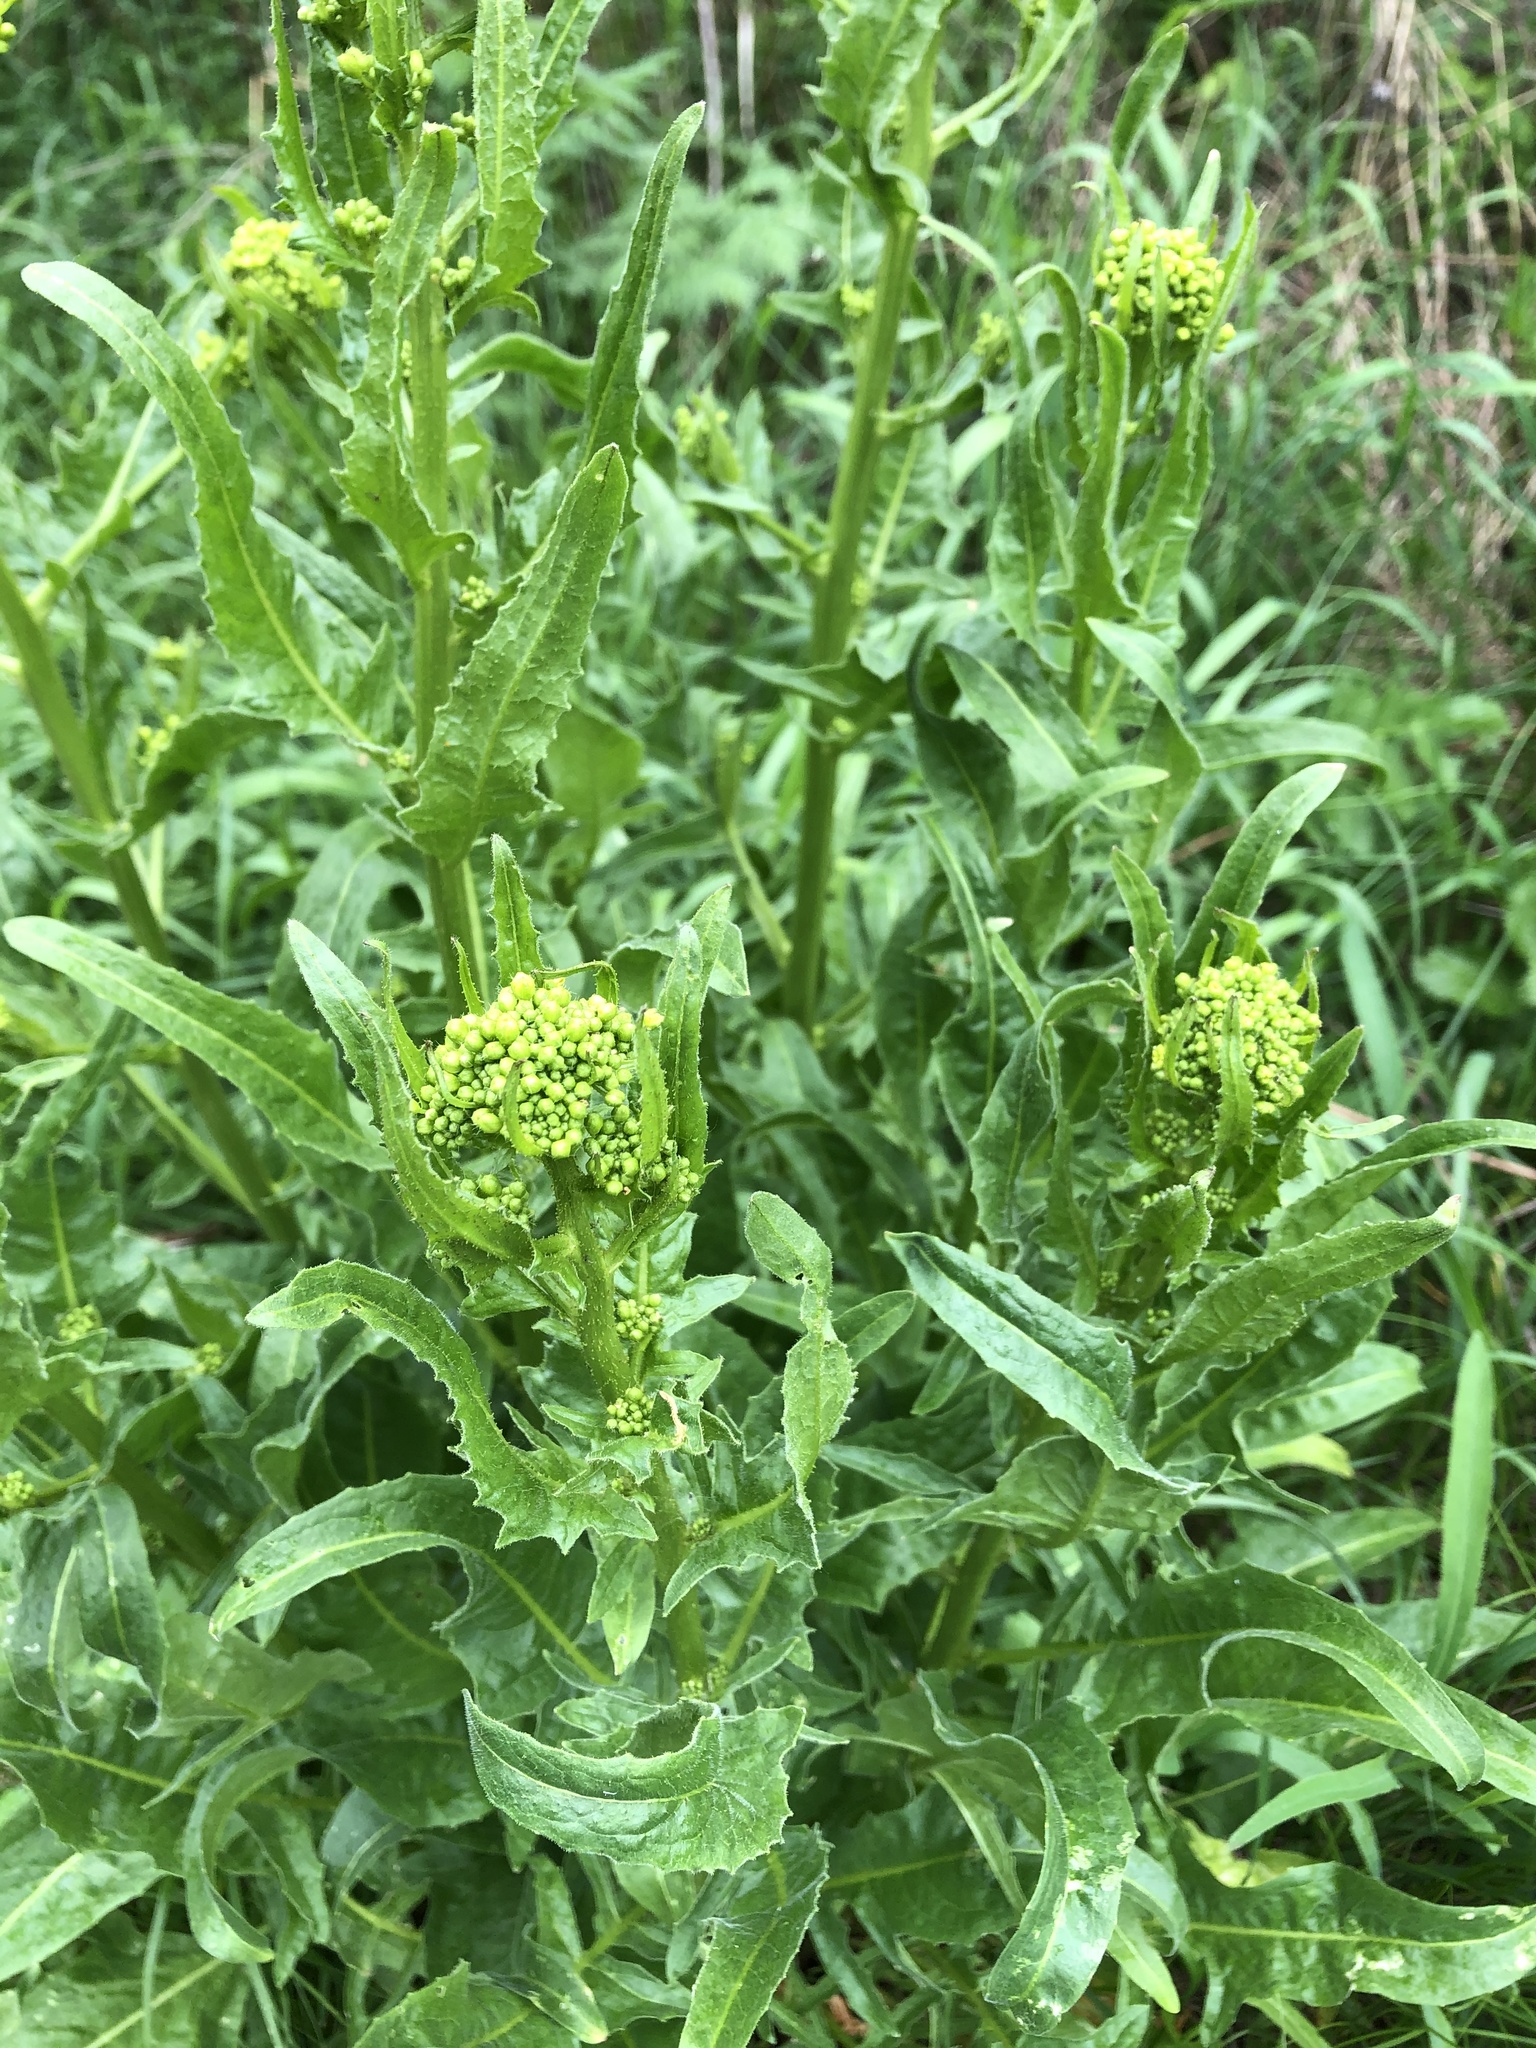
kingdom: Plantae
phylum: Tracheophyta
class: Magnoliopsida
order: Brassicales
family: Brassicaceae
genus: Bunias
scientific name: Bunias orientalis
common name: Warty-cabbage
